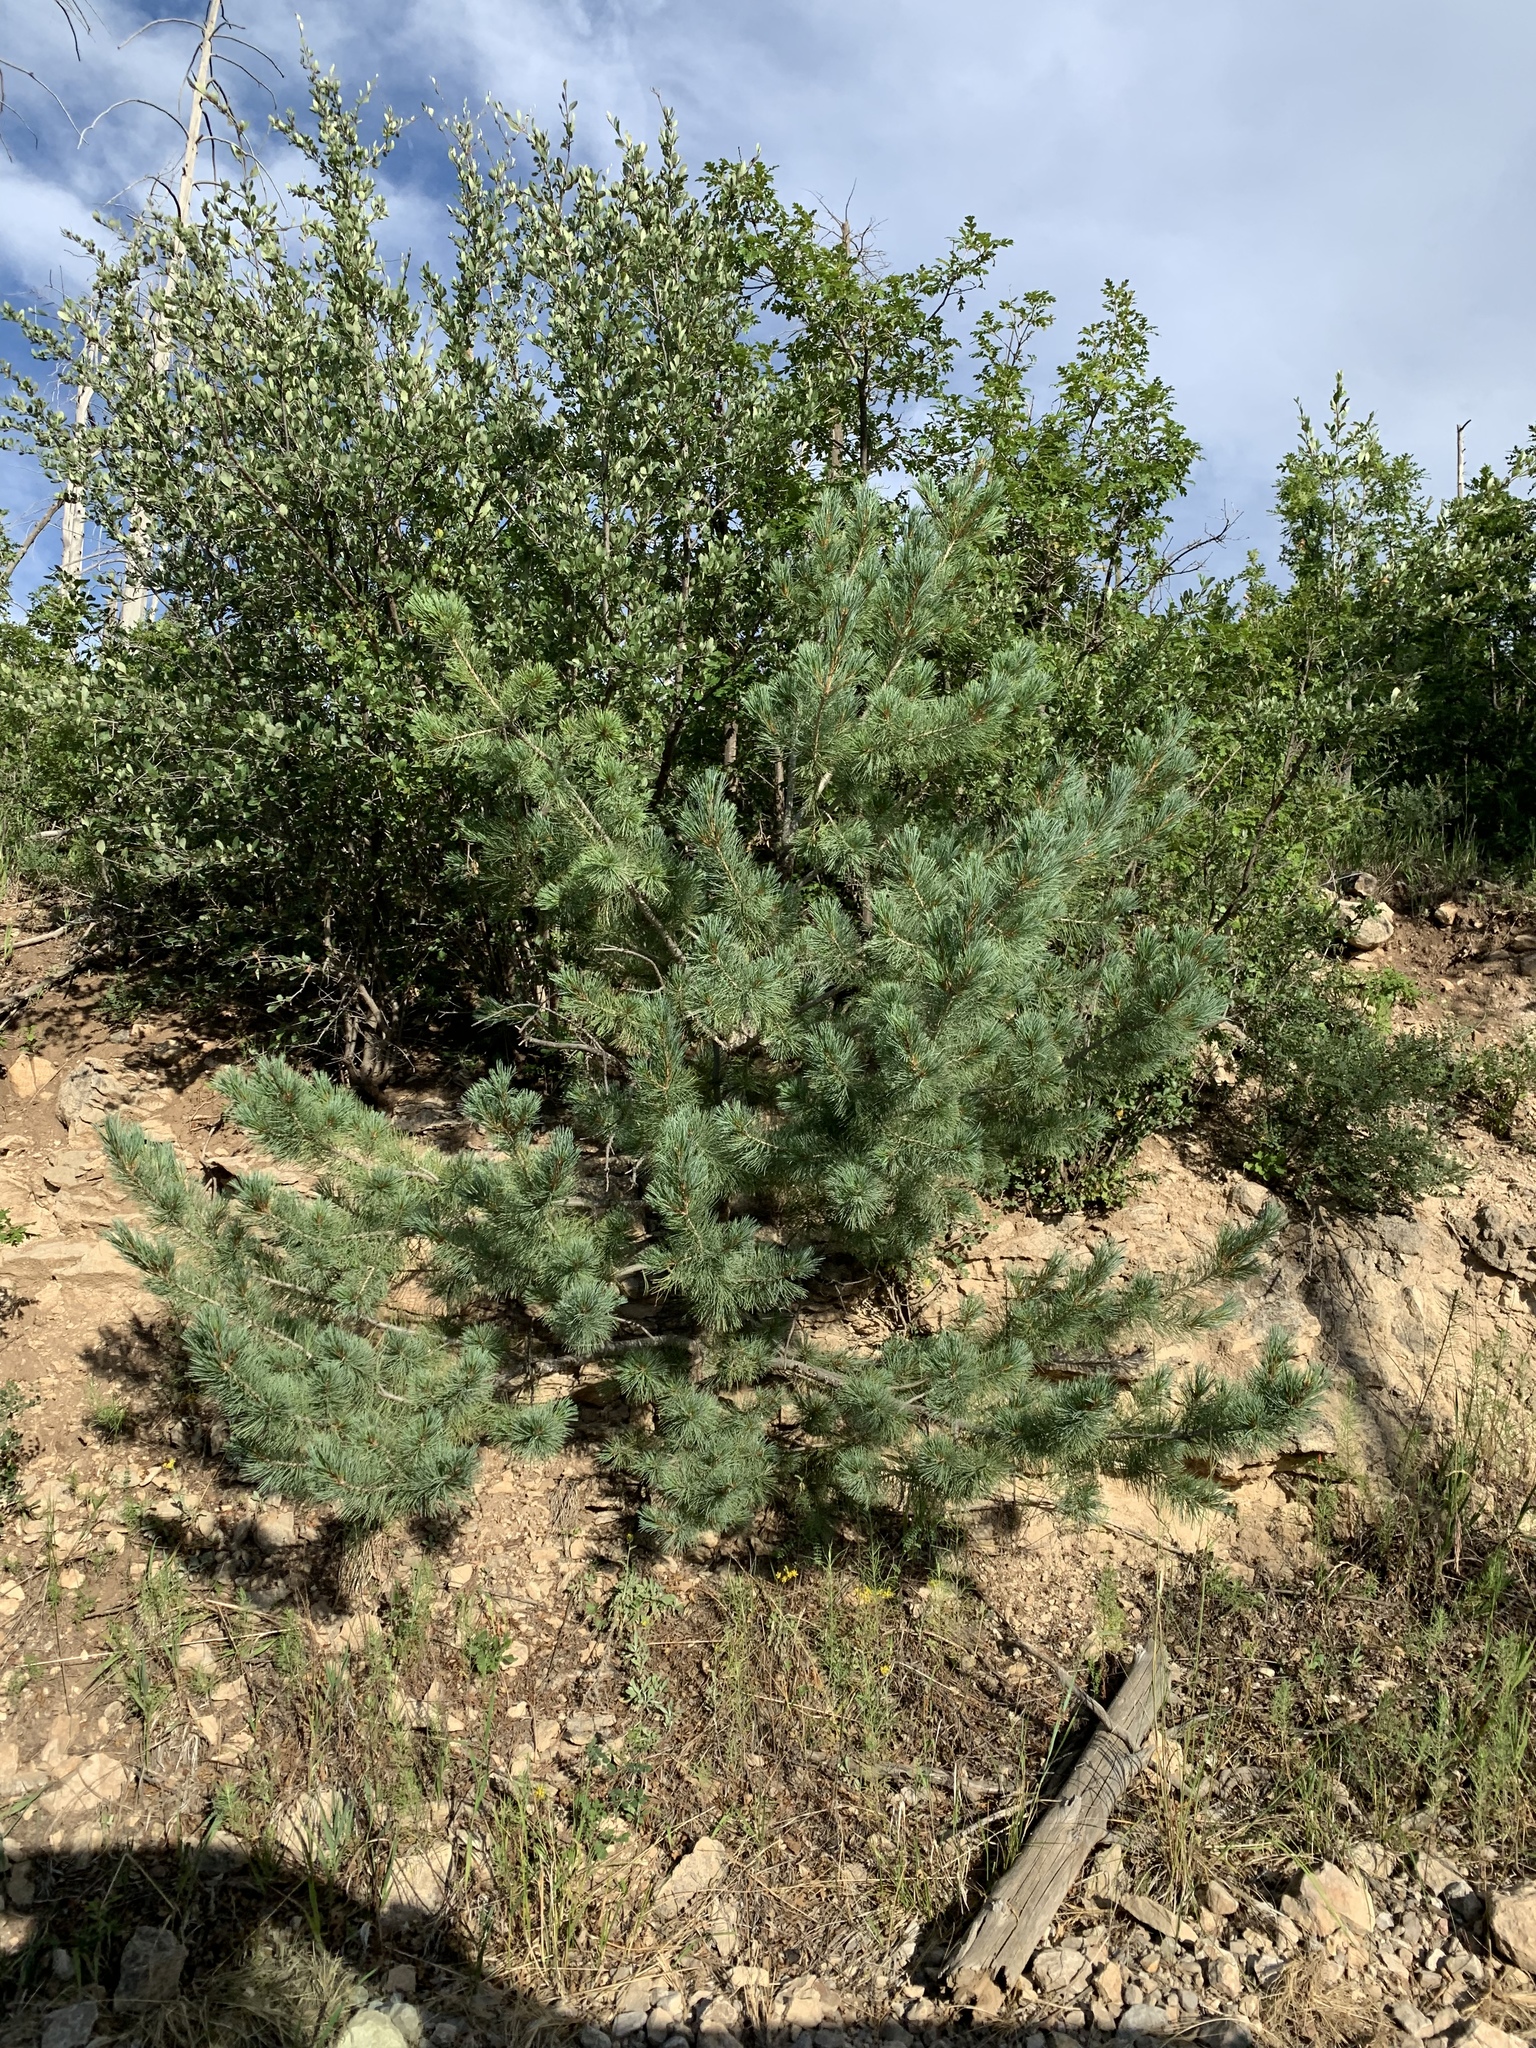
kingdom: Plantae
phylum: Tracheophyta
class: Pinopsida
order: Pinales
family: Pinaceae
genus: Pinus
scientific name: Pinus strobiformis
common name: Southwestern white pine
